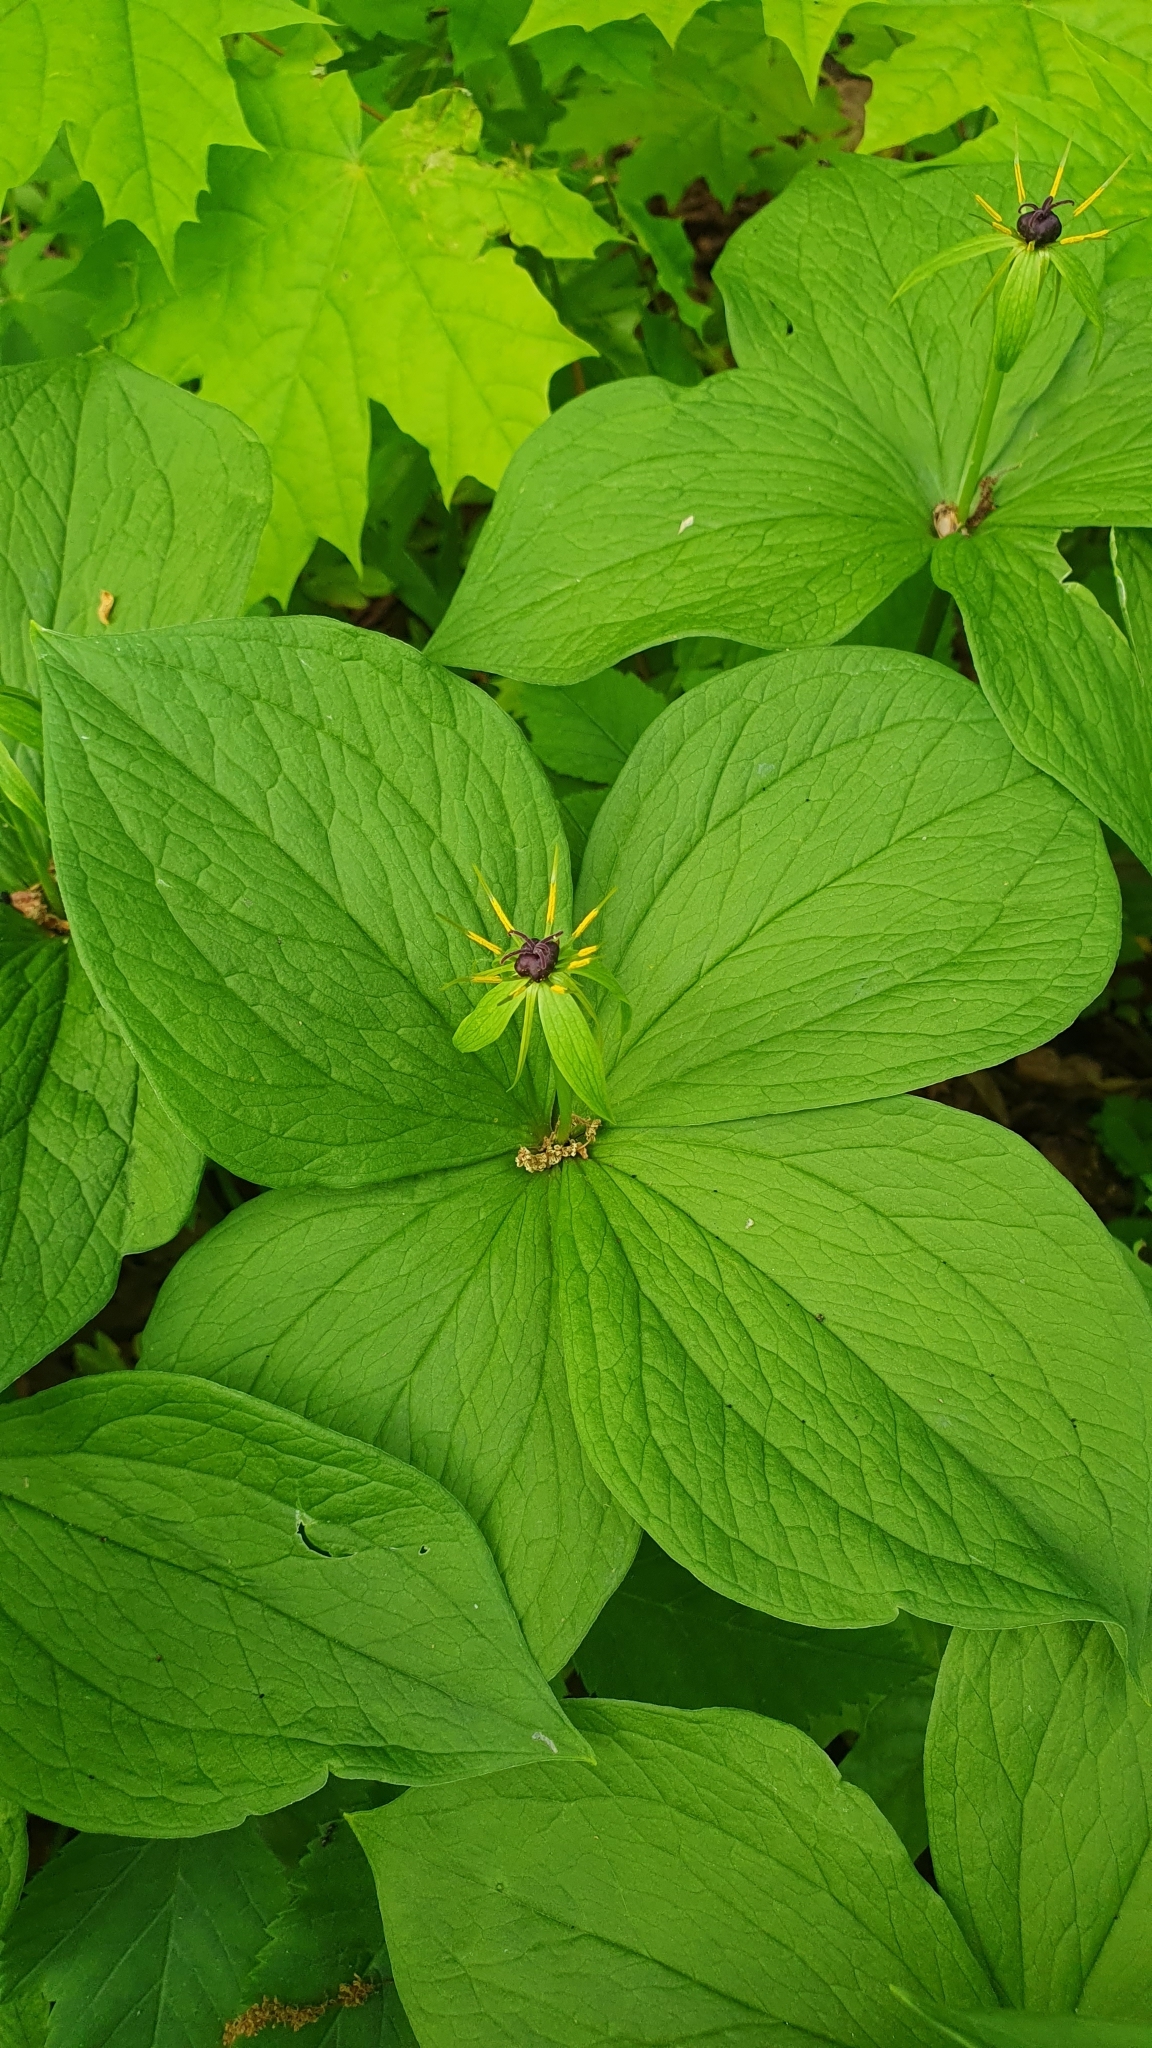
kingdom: Plantae
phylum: Tracheophyta
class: Liliopsida
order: Liliales
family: Melanthiaceae
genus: Paris
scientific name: Paris quadrifolia
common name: Herb-paris
